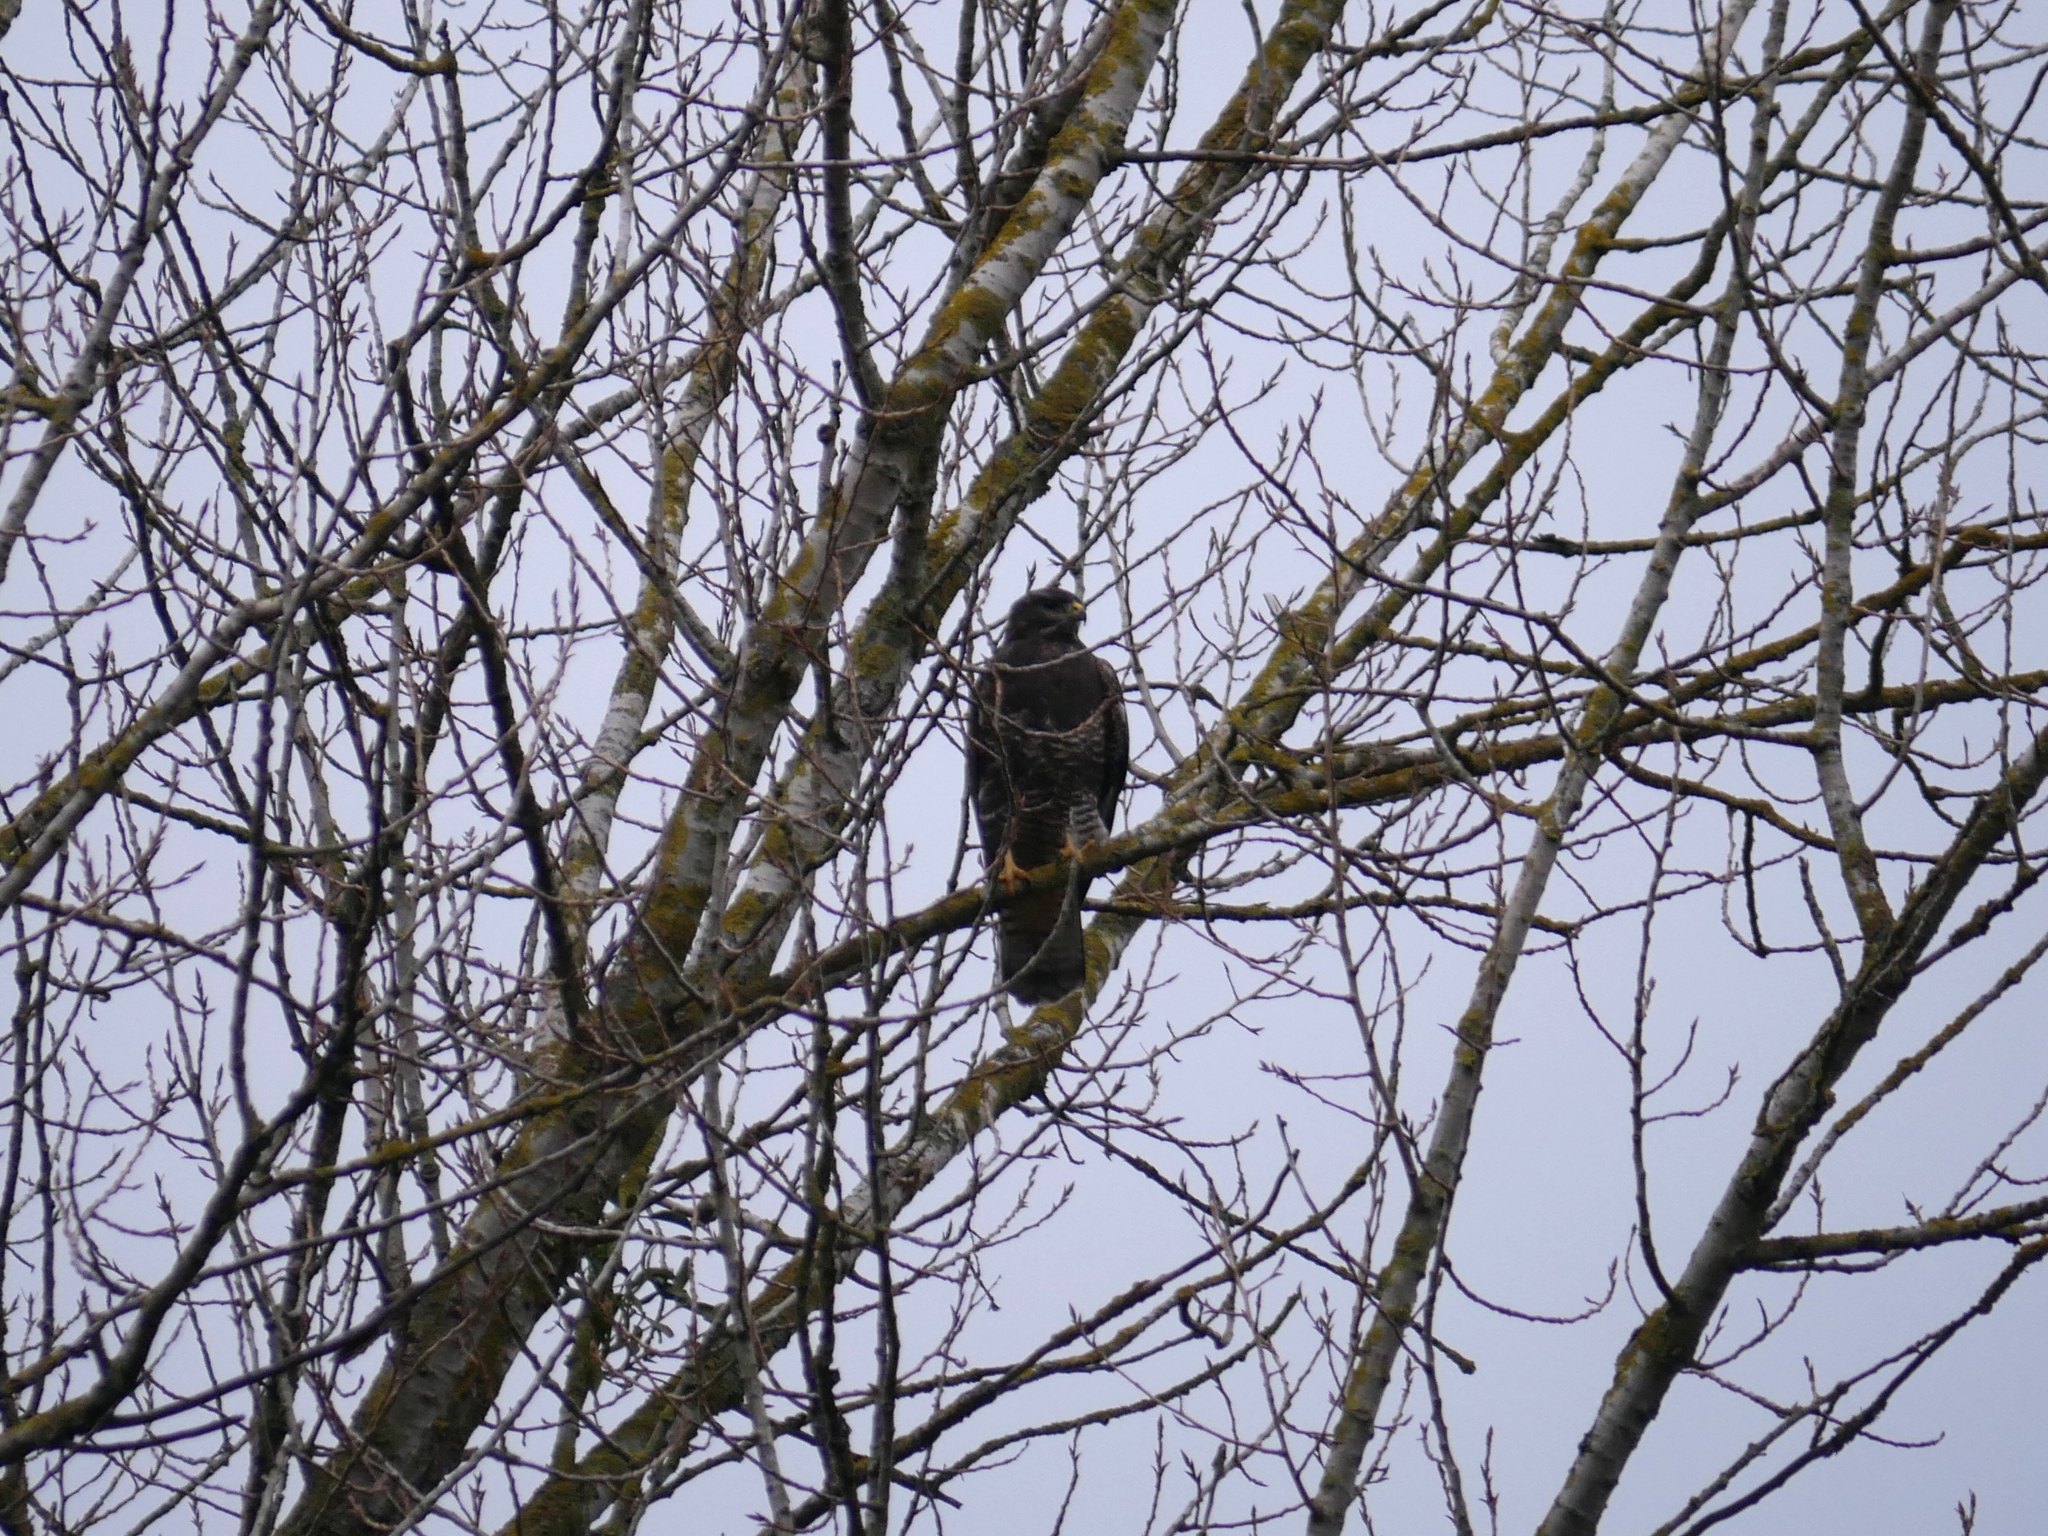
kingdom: Animalia
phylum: Chordata
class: Aves
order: Accipitriformes
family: Accipitridae
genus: Buteo
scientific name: Buteo buteo
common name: Common buzzard
